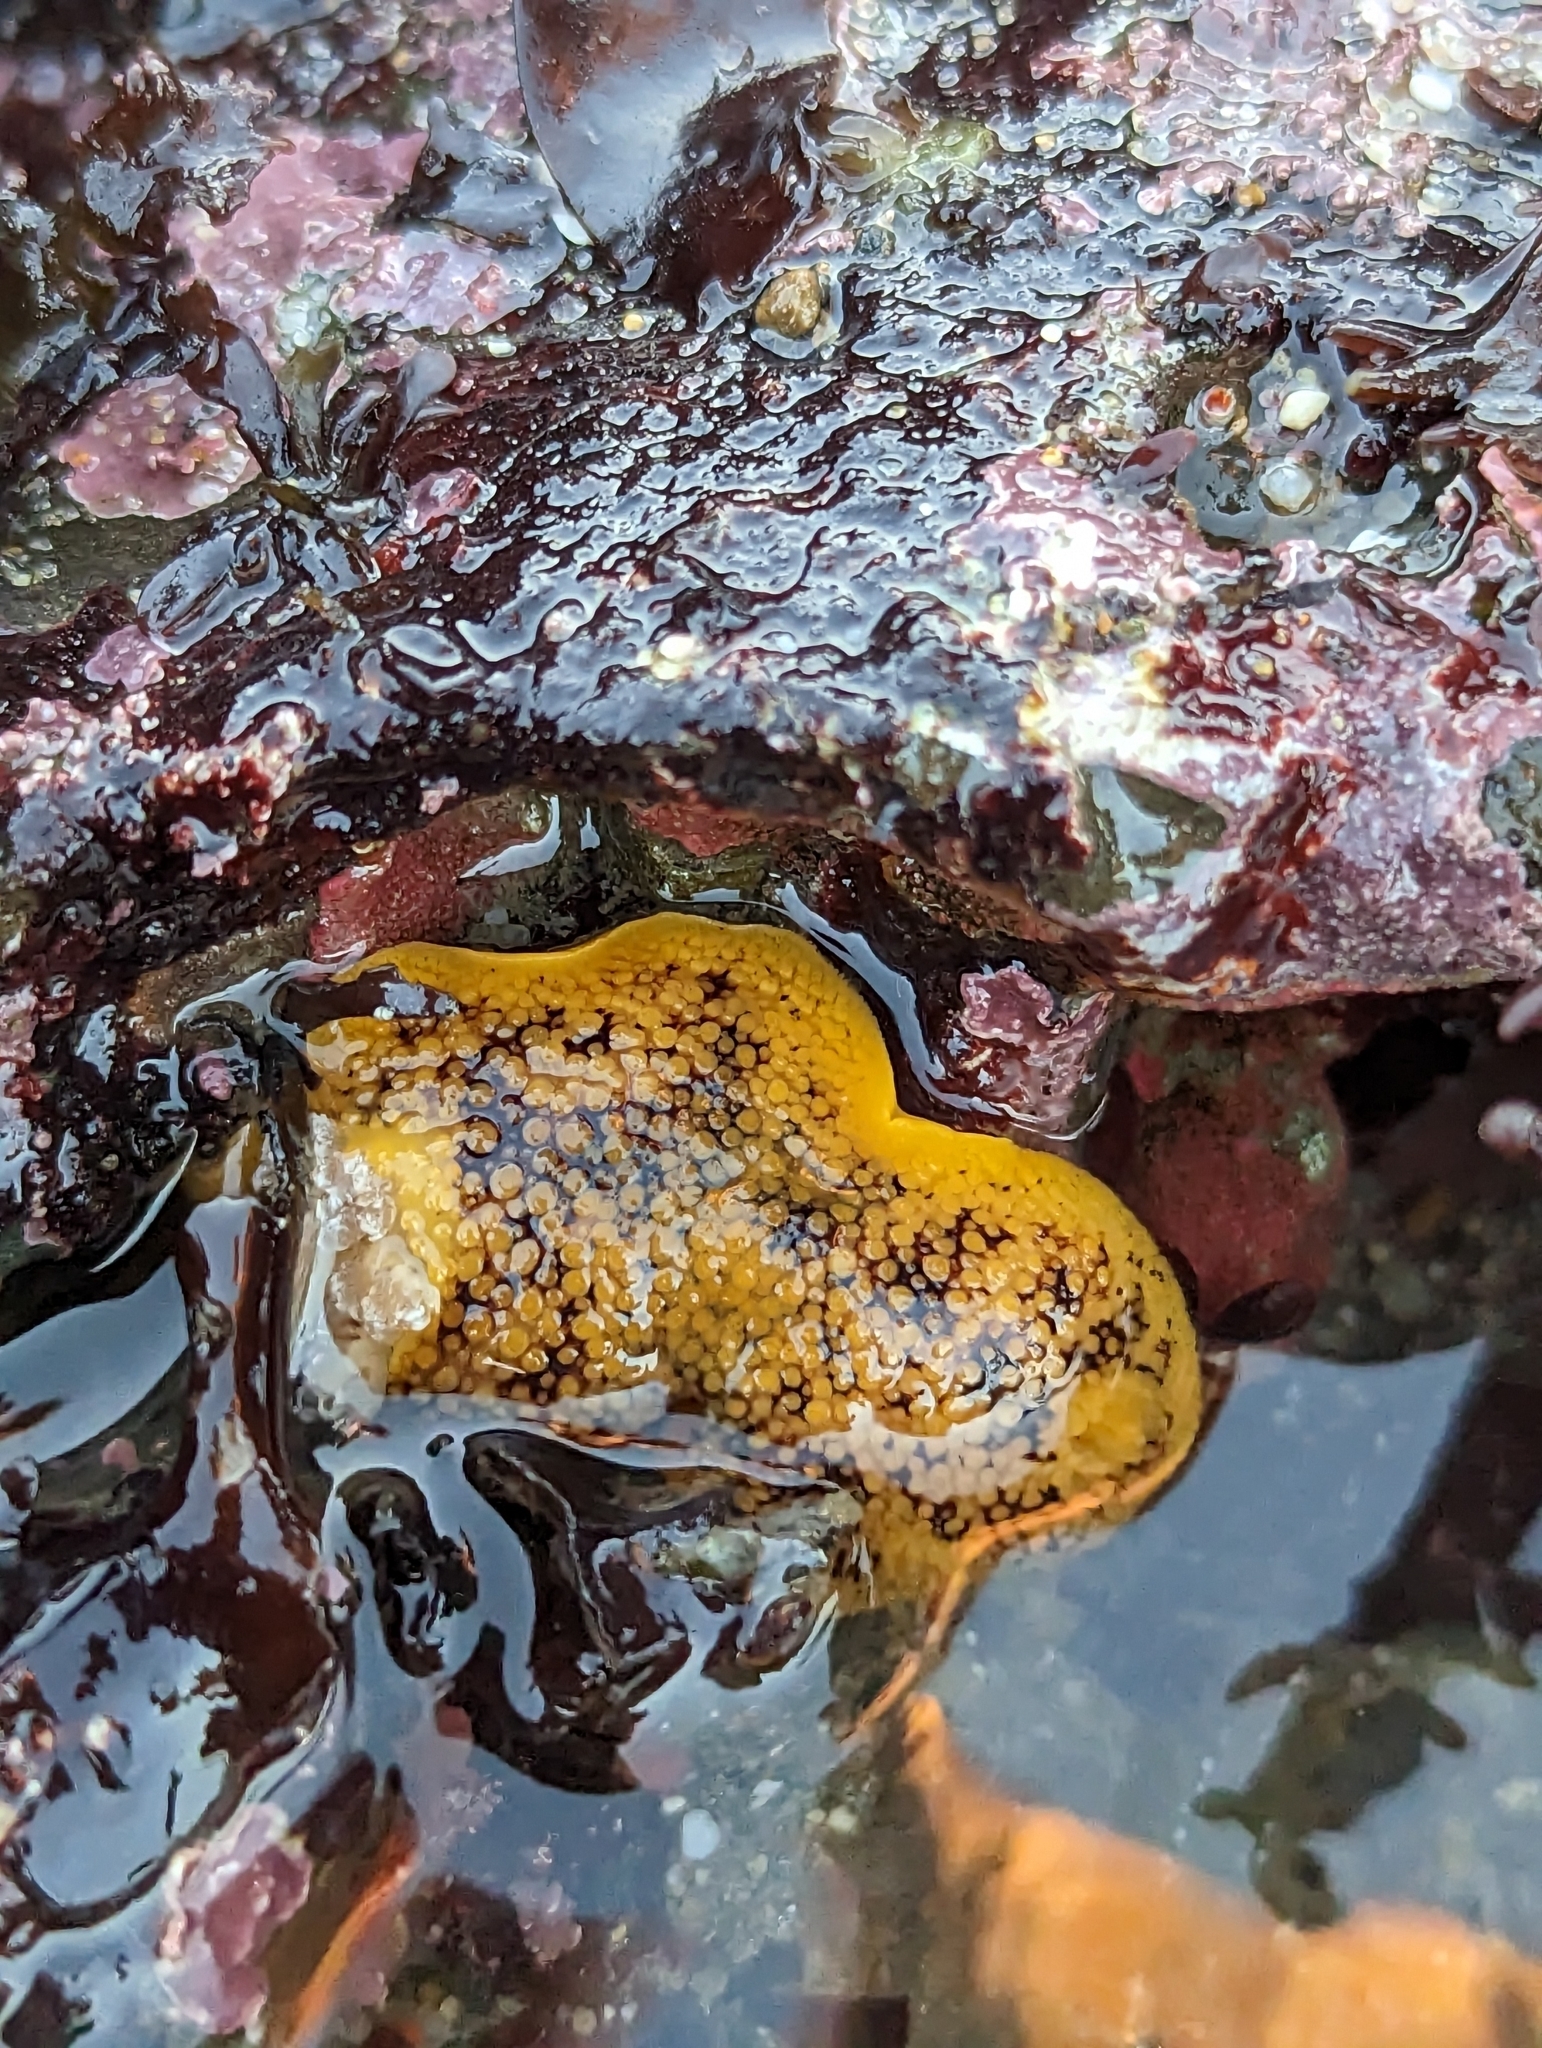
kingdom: Animalia
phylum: Mollusca
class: Gastropoda
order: Nudibranchia
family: Discodorididae
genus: Peltodoris
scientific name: Peltodoris nobilis
